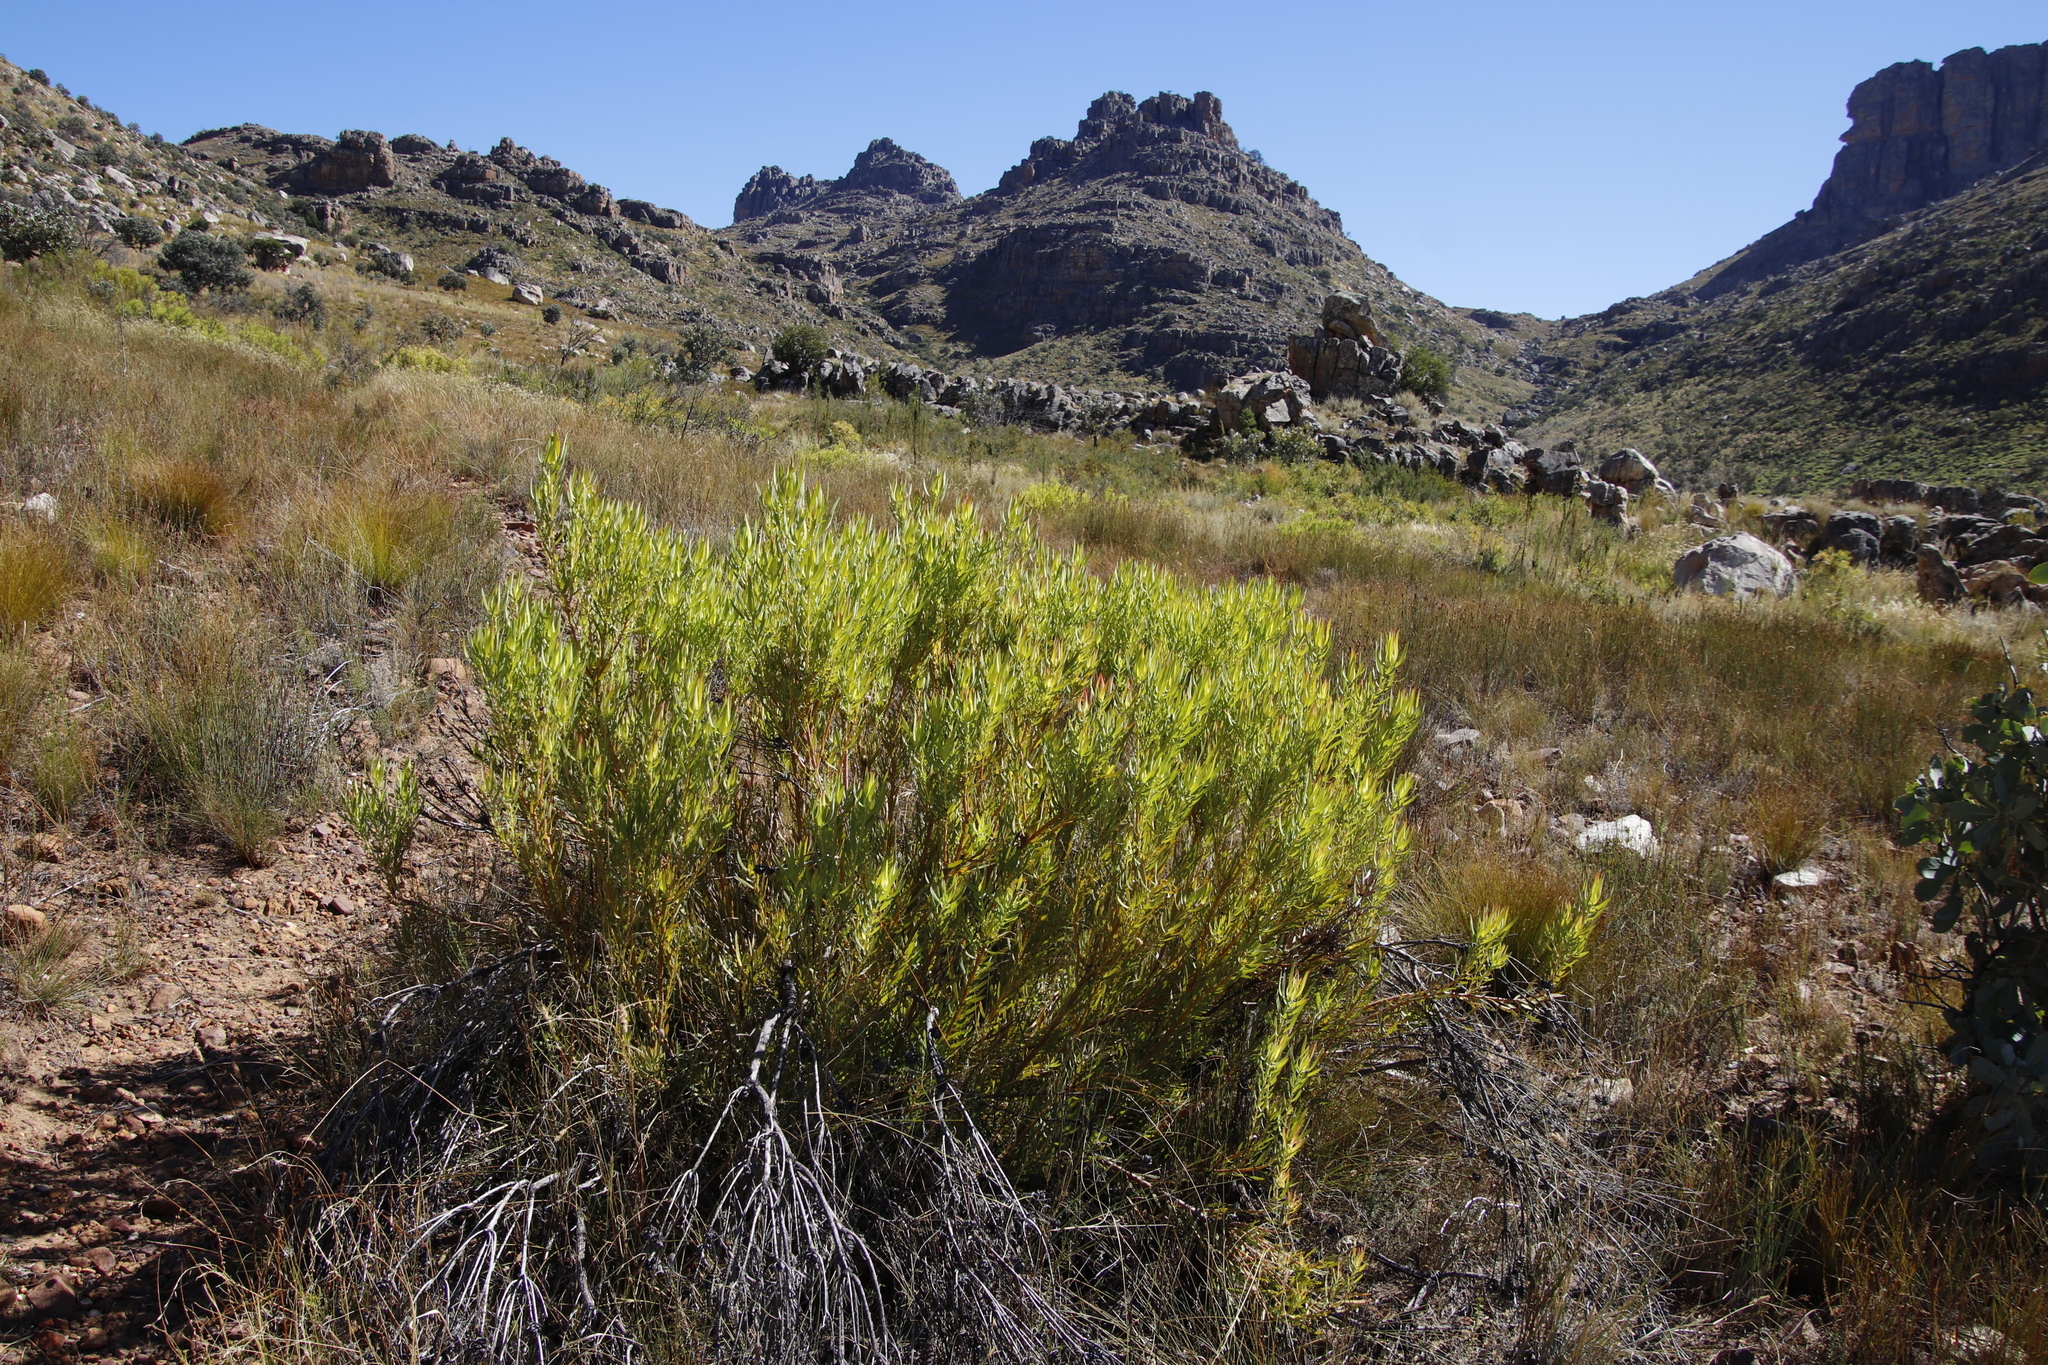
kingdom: Plantae
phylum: Tracheophyta
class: Magnoliopsida
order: Proteales
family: Proteaceae
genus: Leucadendron
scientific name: Leucadendron salignum
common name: Common sunshine conebush
